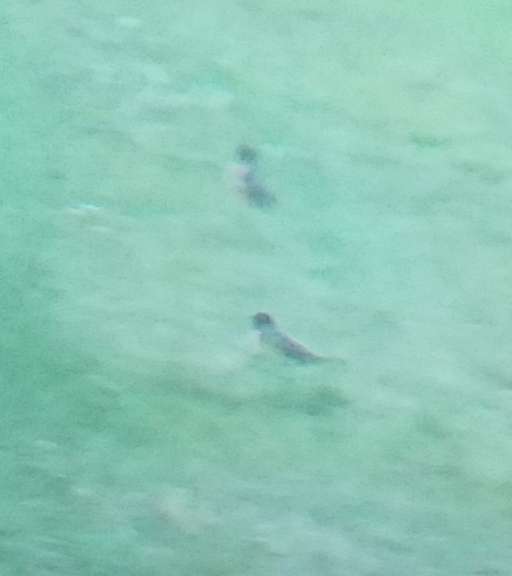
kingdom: Animalia
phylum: Chordata
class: Aves
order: Passeriformes
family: Turdidae
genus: Turdus
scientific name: Turdus migratorius
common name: American robin
